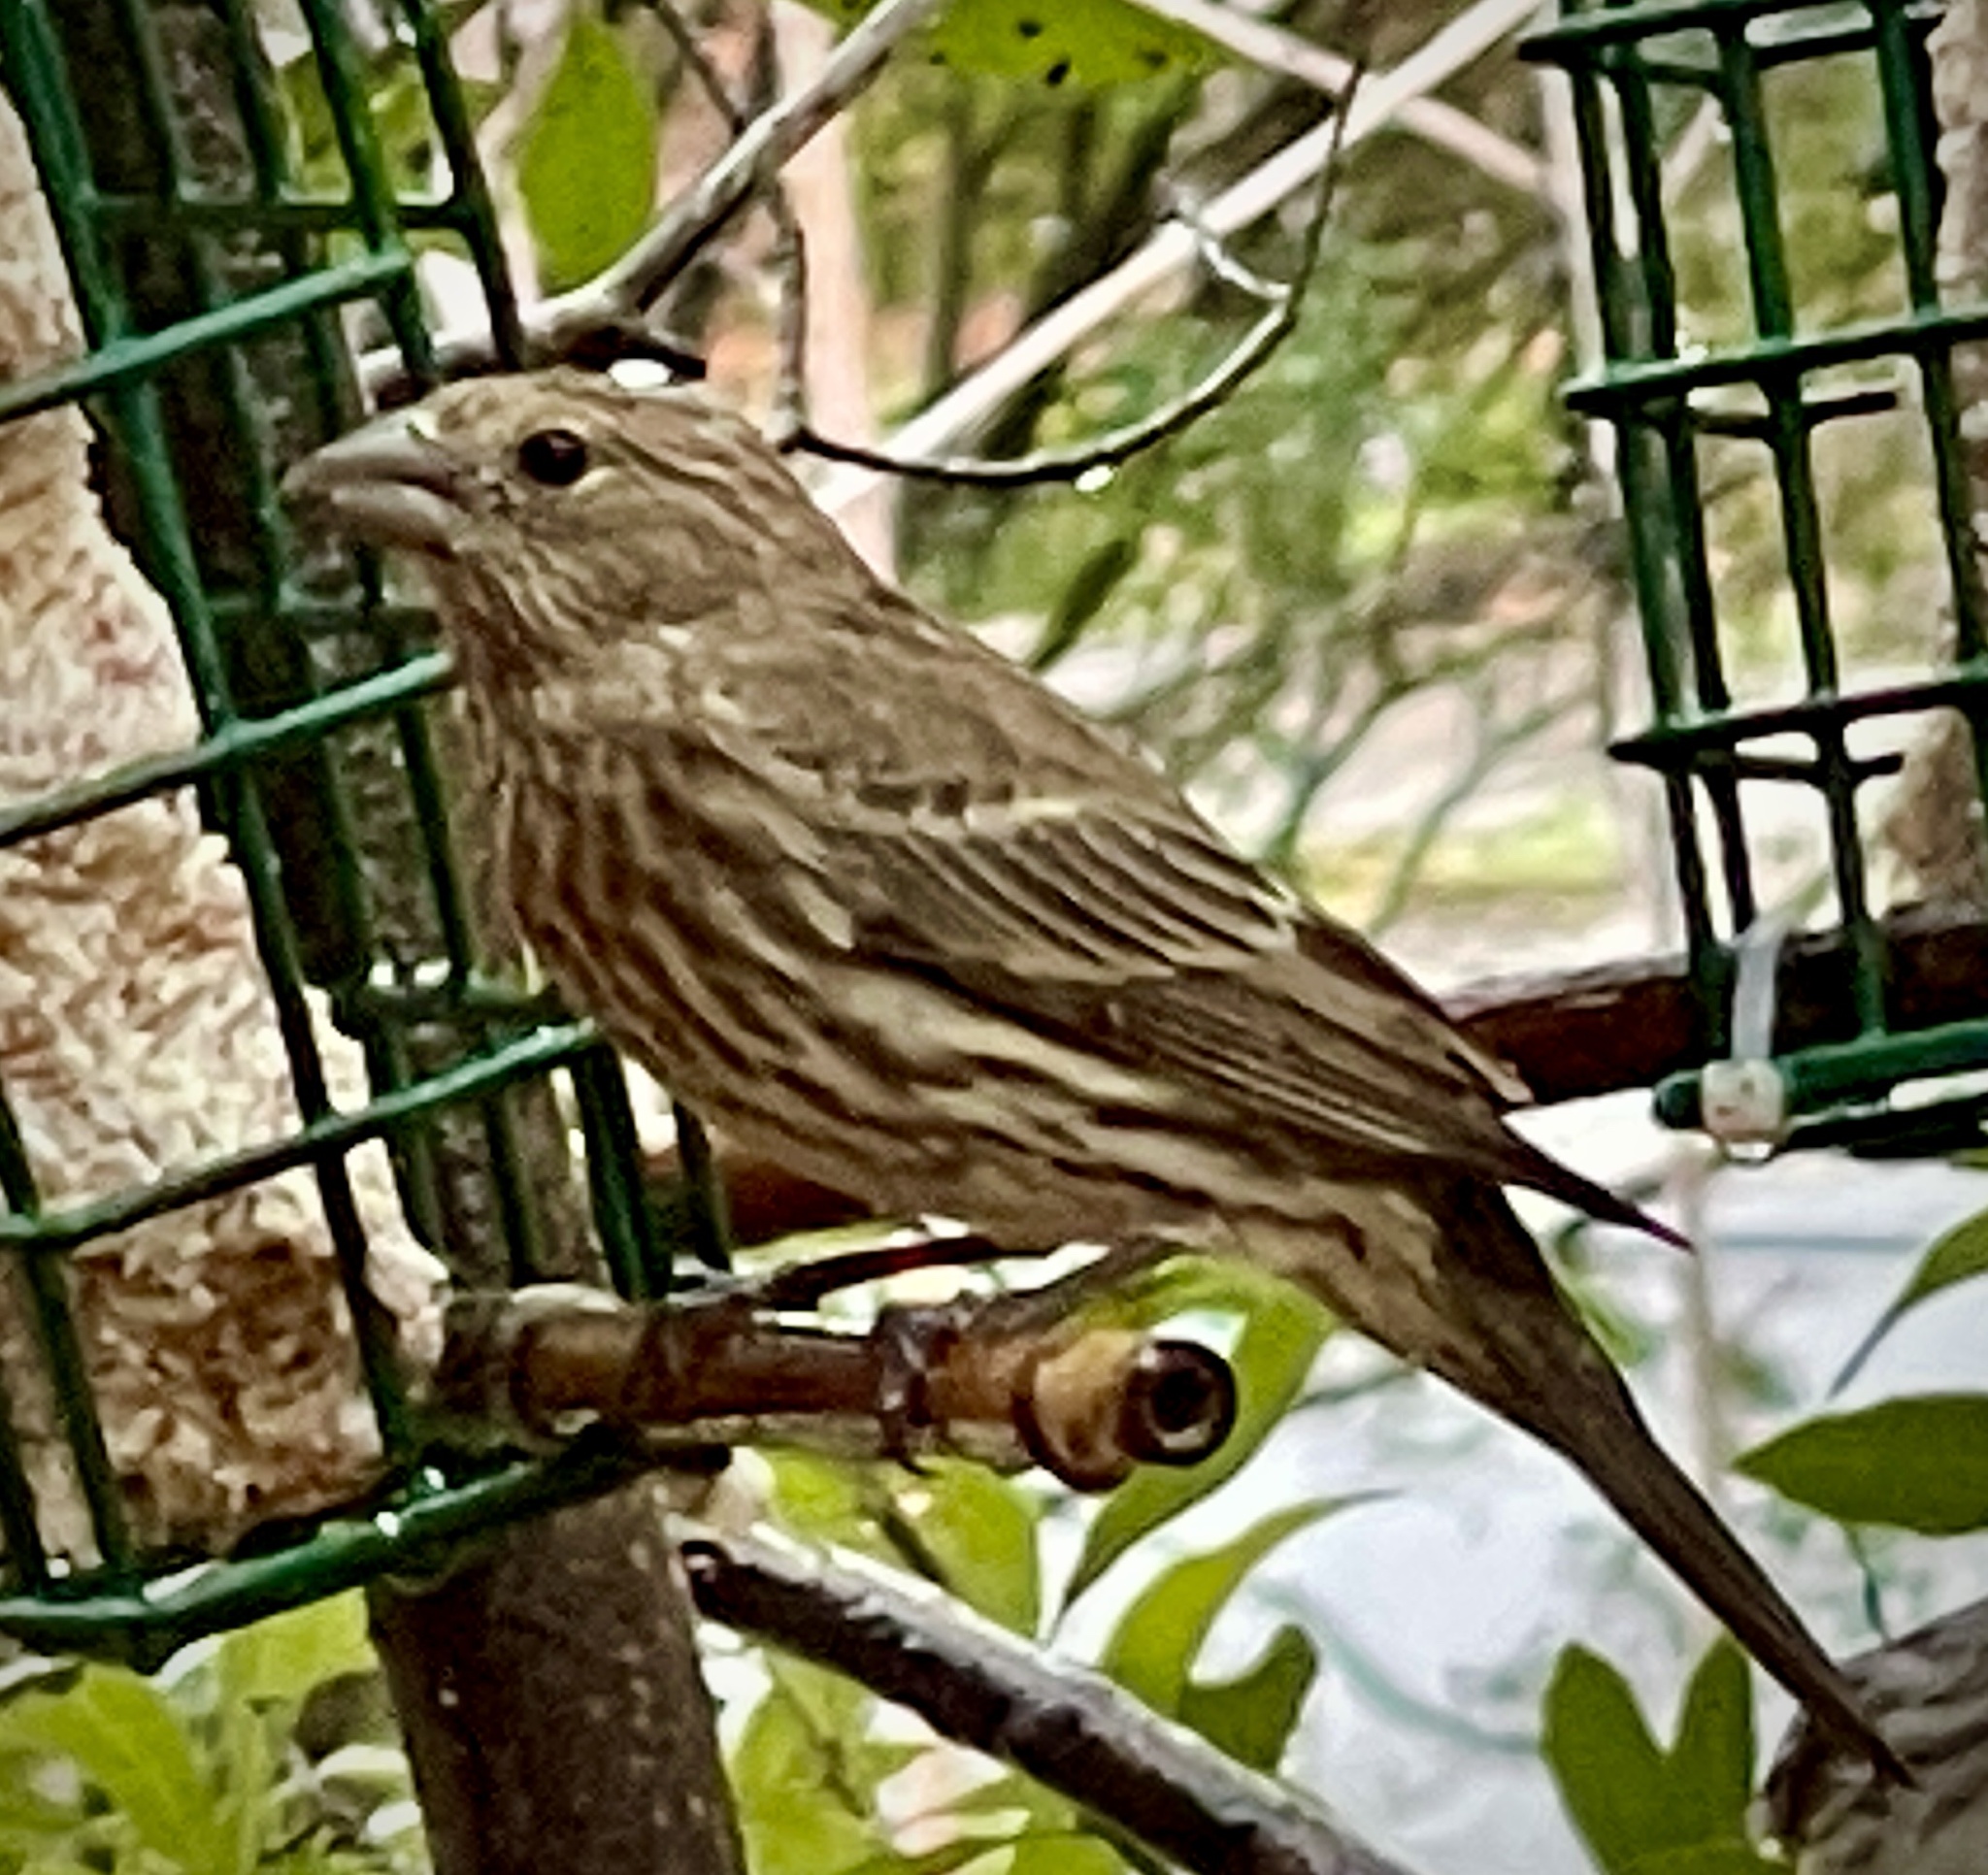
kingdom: Animalia
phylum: Chordata
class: Aves
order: Passeriformes
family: Fringillidae
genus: Haemorhous
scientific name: Haemorhous mexicanus
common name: House finch
